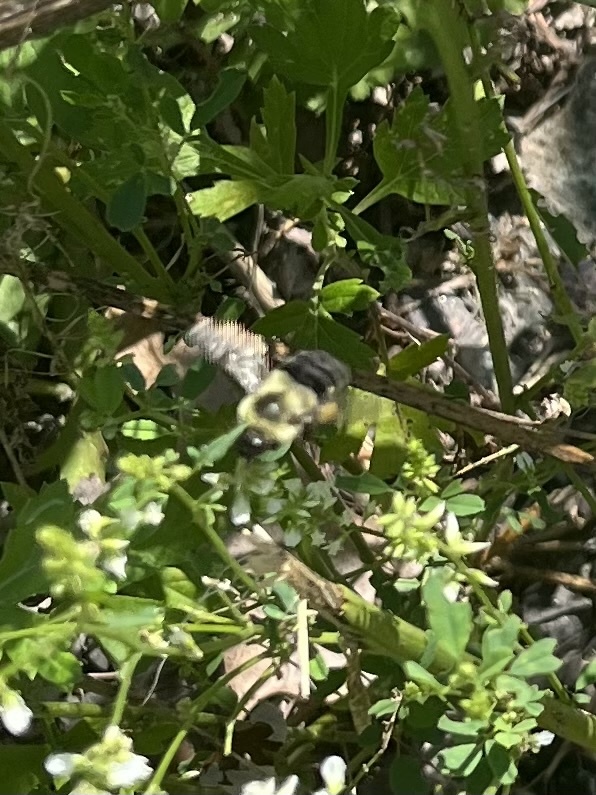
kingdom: Animalia
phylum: Arthropoda
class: Insecta
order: Hymenoptera
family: Apidae
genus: Bombus
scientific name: Bombus impatiens
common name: Common eastern bumble bee
